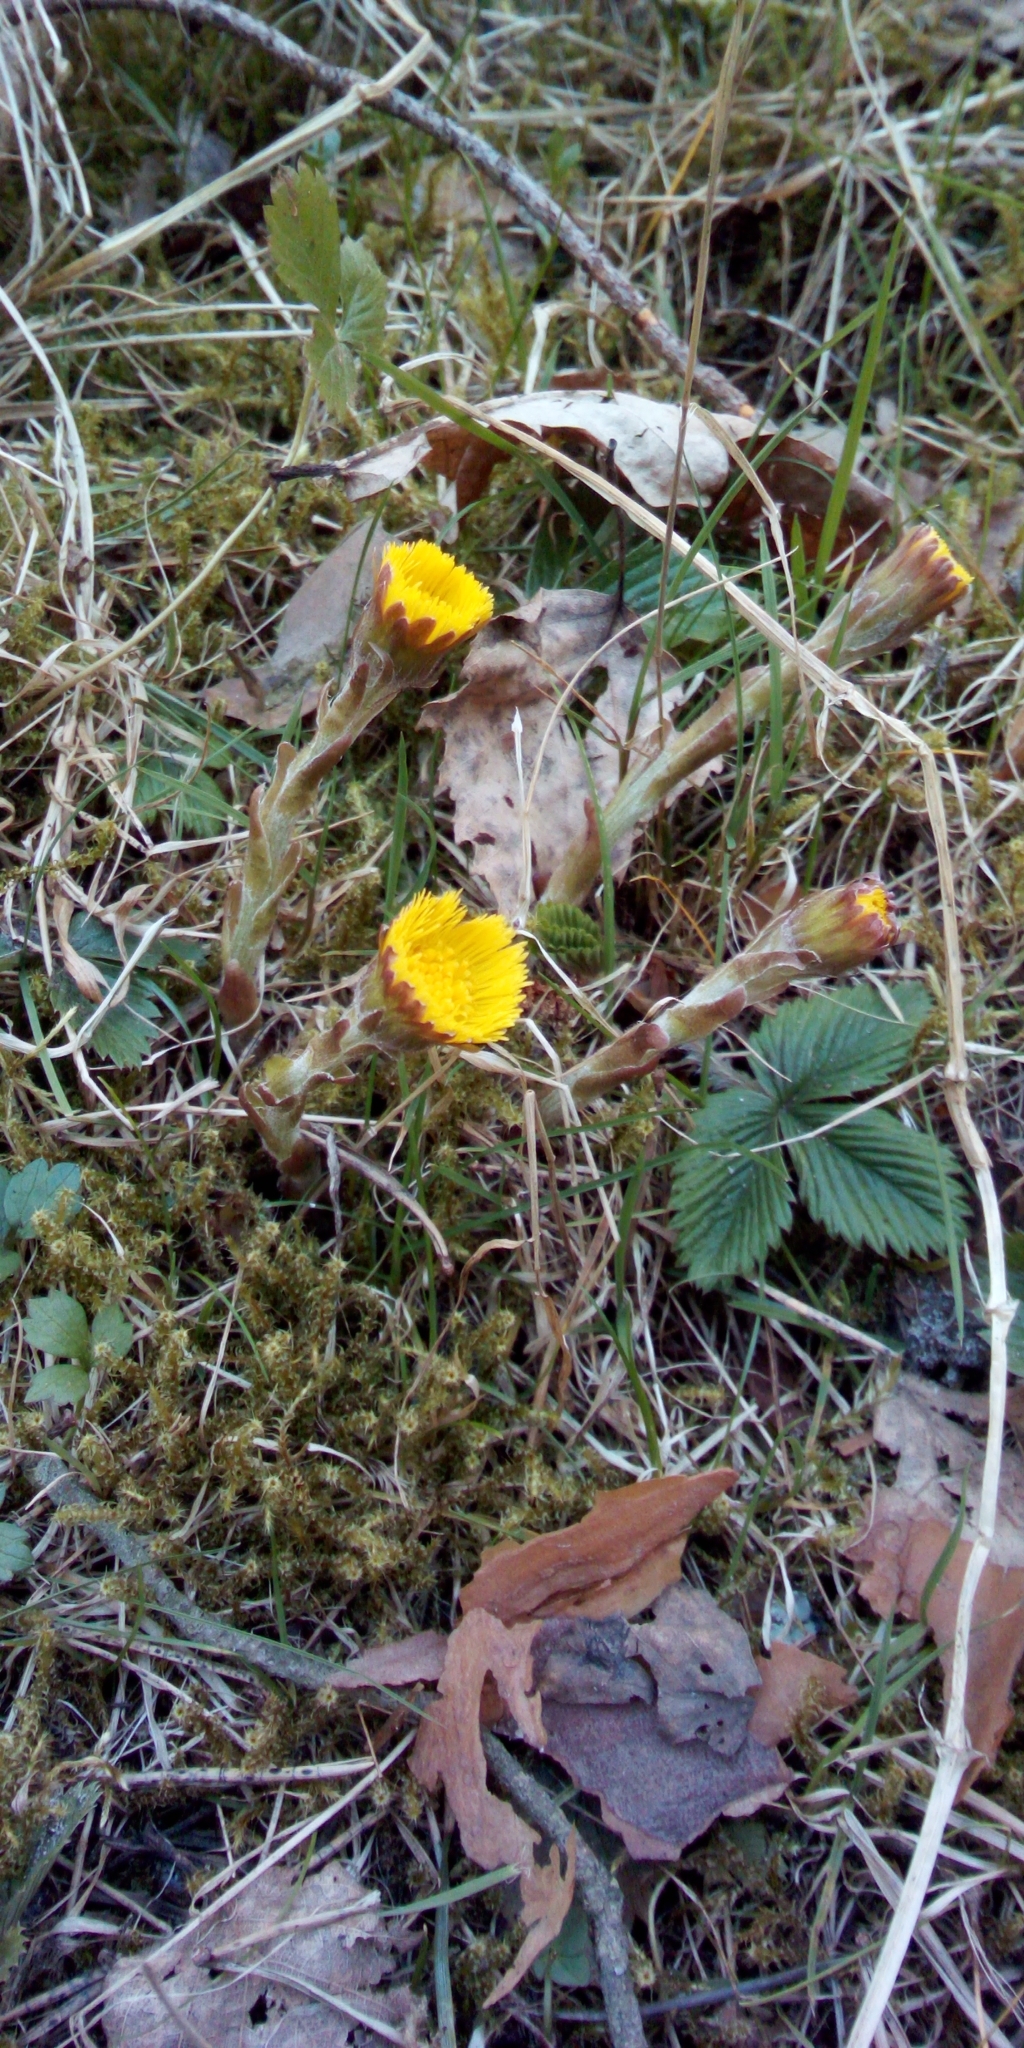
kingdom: Plantae
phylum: Tracheophyta
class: Magnoliopsida
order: Asterales
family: Asteraceae
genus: Tussilago
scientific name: Tussilago farfara
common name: Coltsfoot
